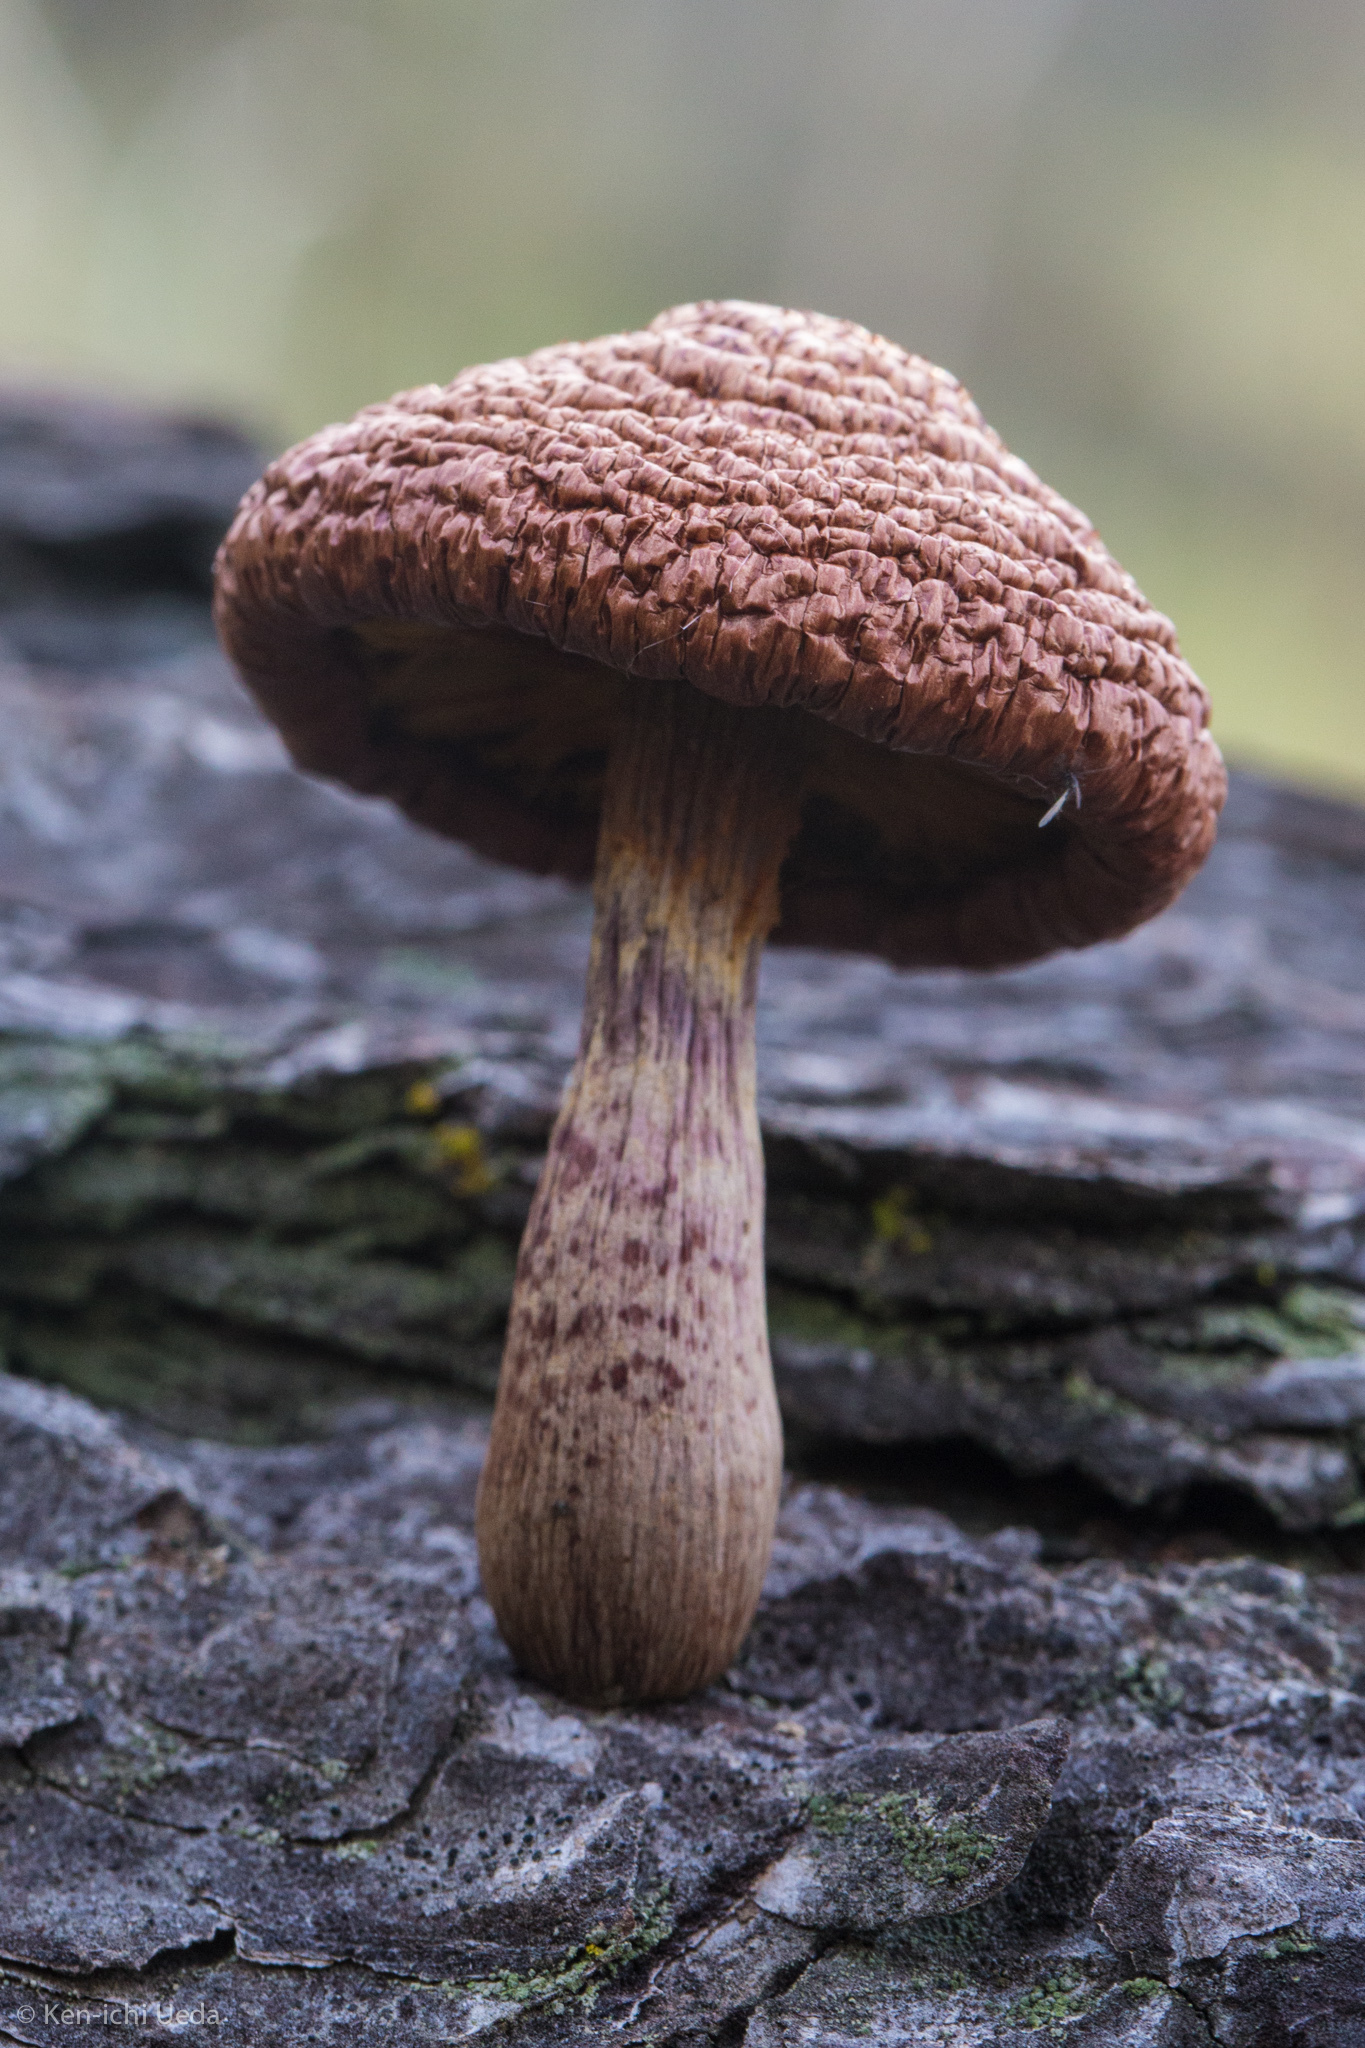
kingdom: Fungi
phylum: Basidiomycota
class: Agaricomycetes
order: Agaricales
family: Hymenogastraceae
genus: Gymnopilus
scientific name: Gymnopilus thiersii
